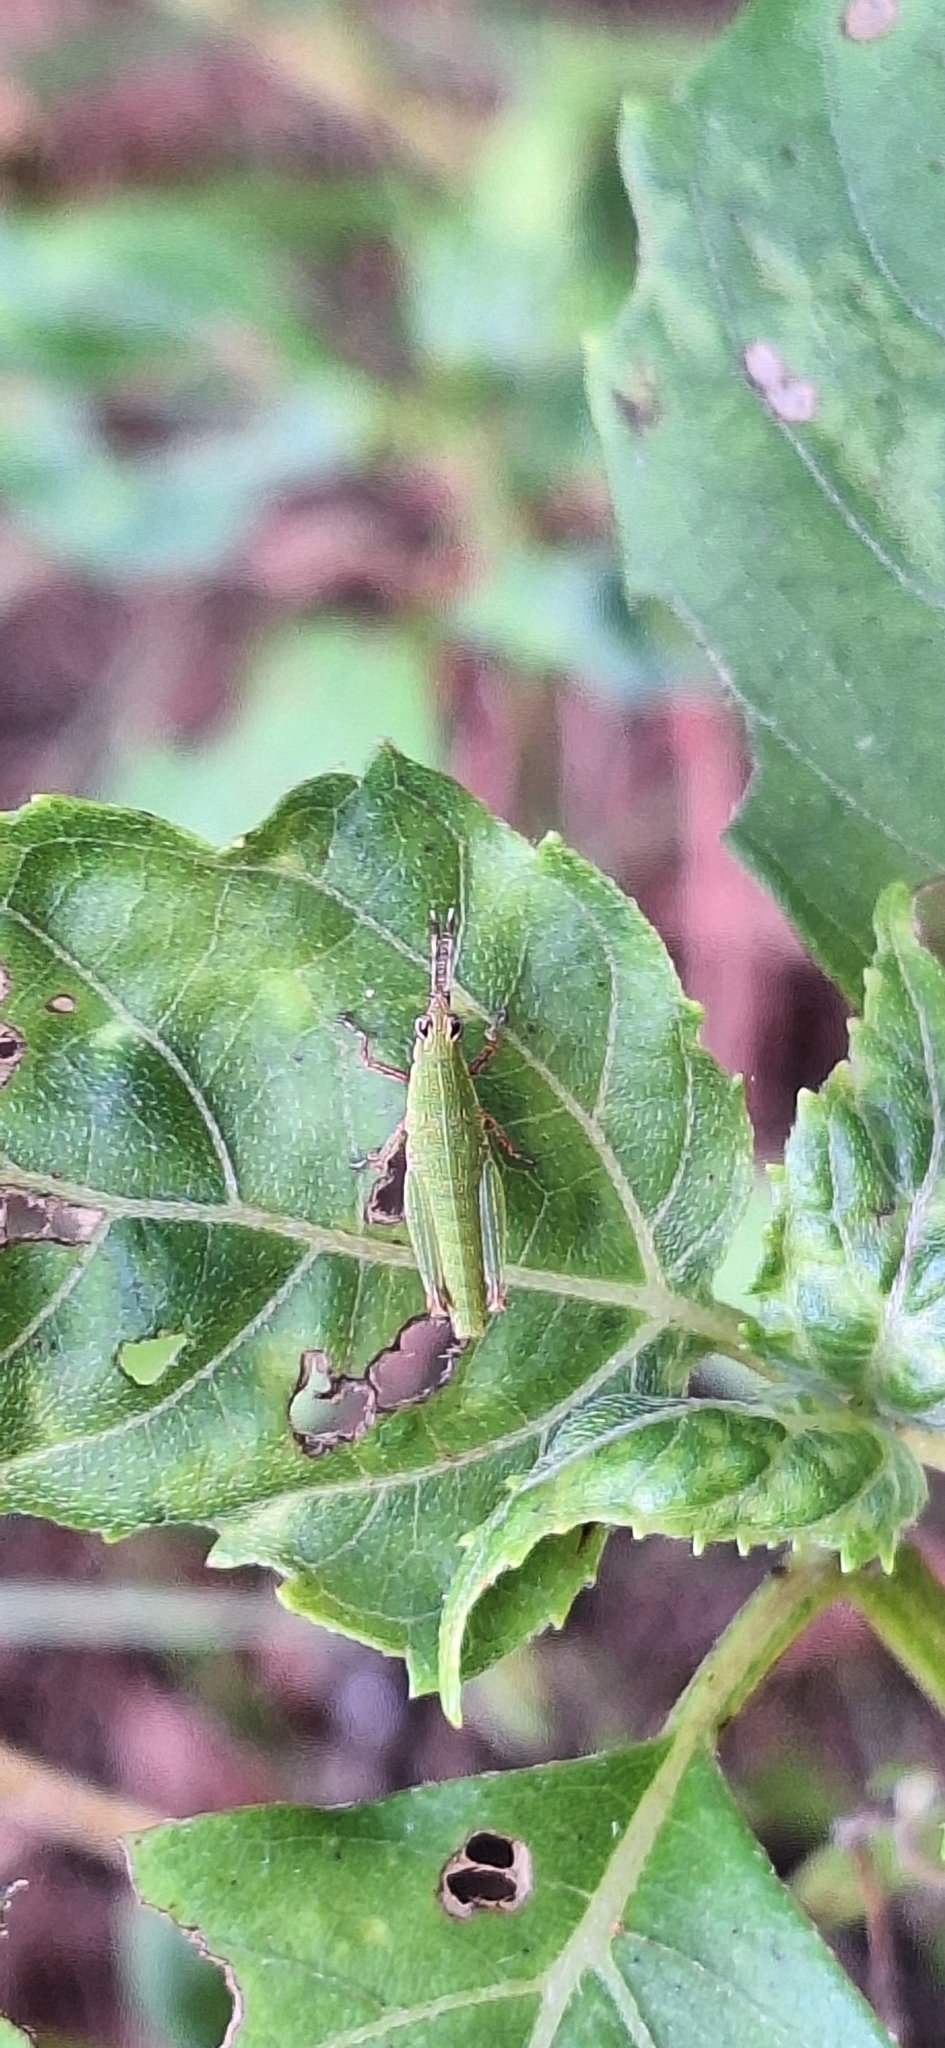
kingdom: Animalia
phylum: Arthropoda
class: Insecta
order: Orthoptera
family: Pyrgomorphidae
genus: Tagasta
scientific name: Tagasta marginella
